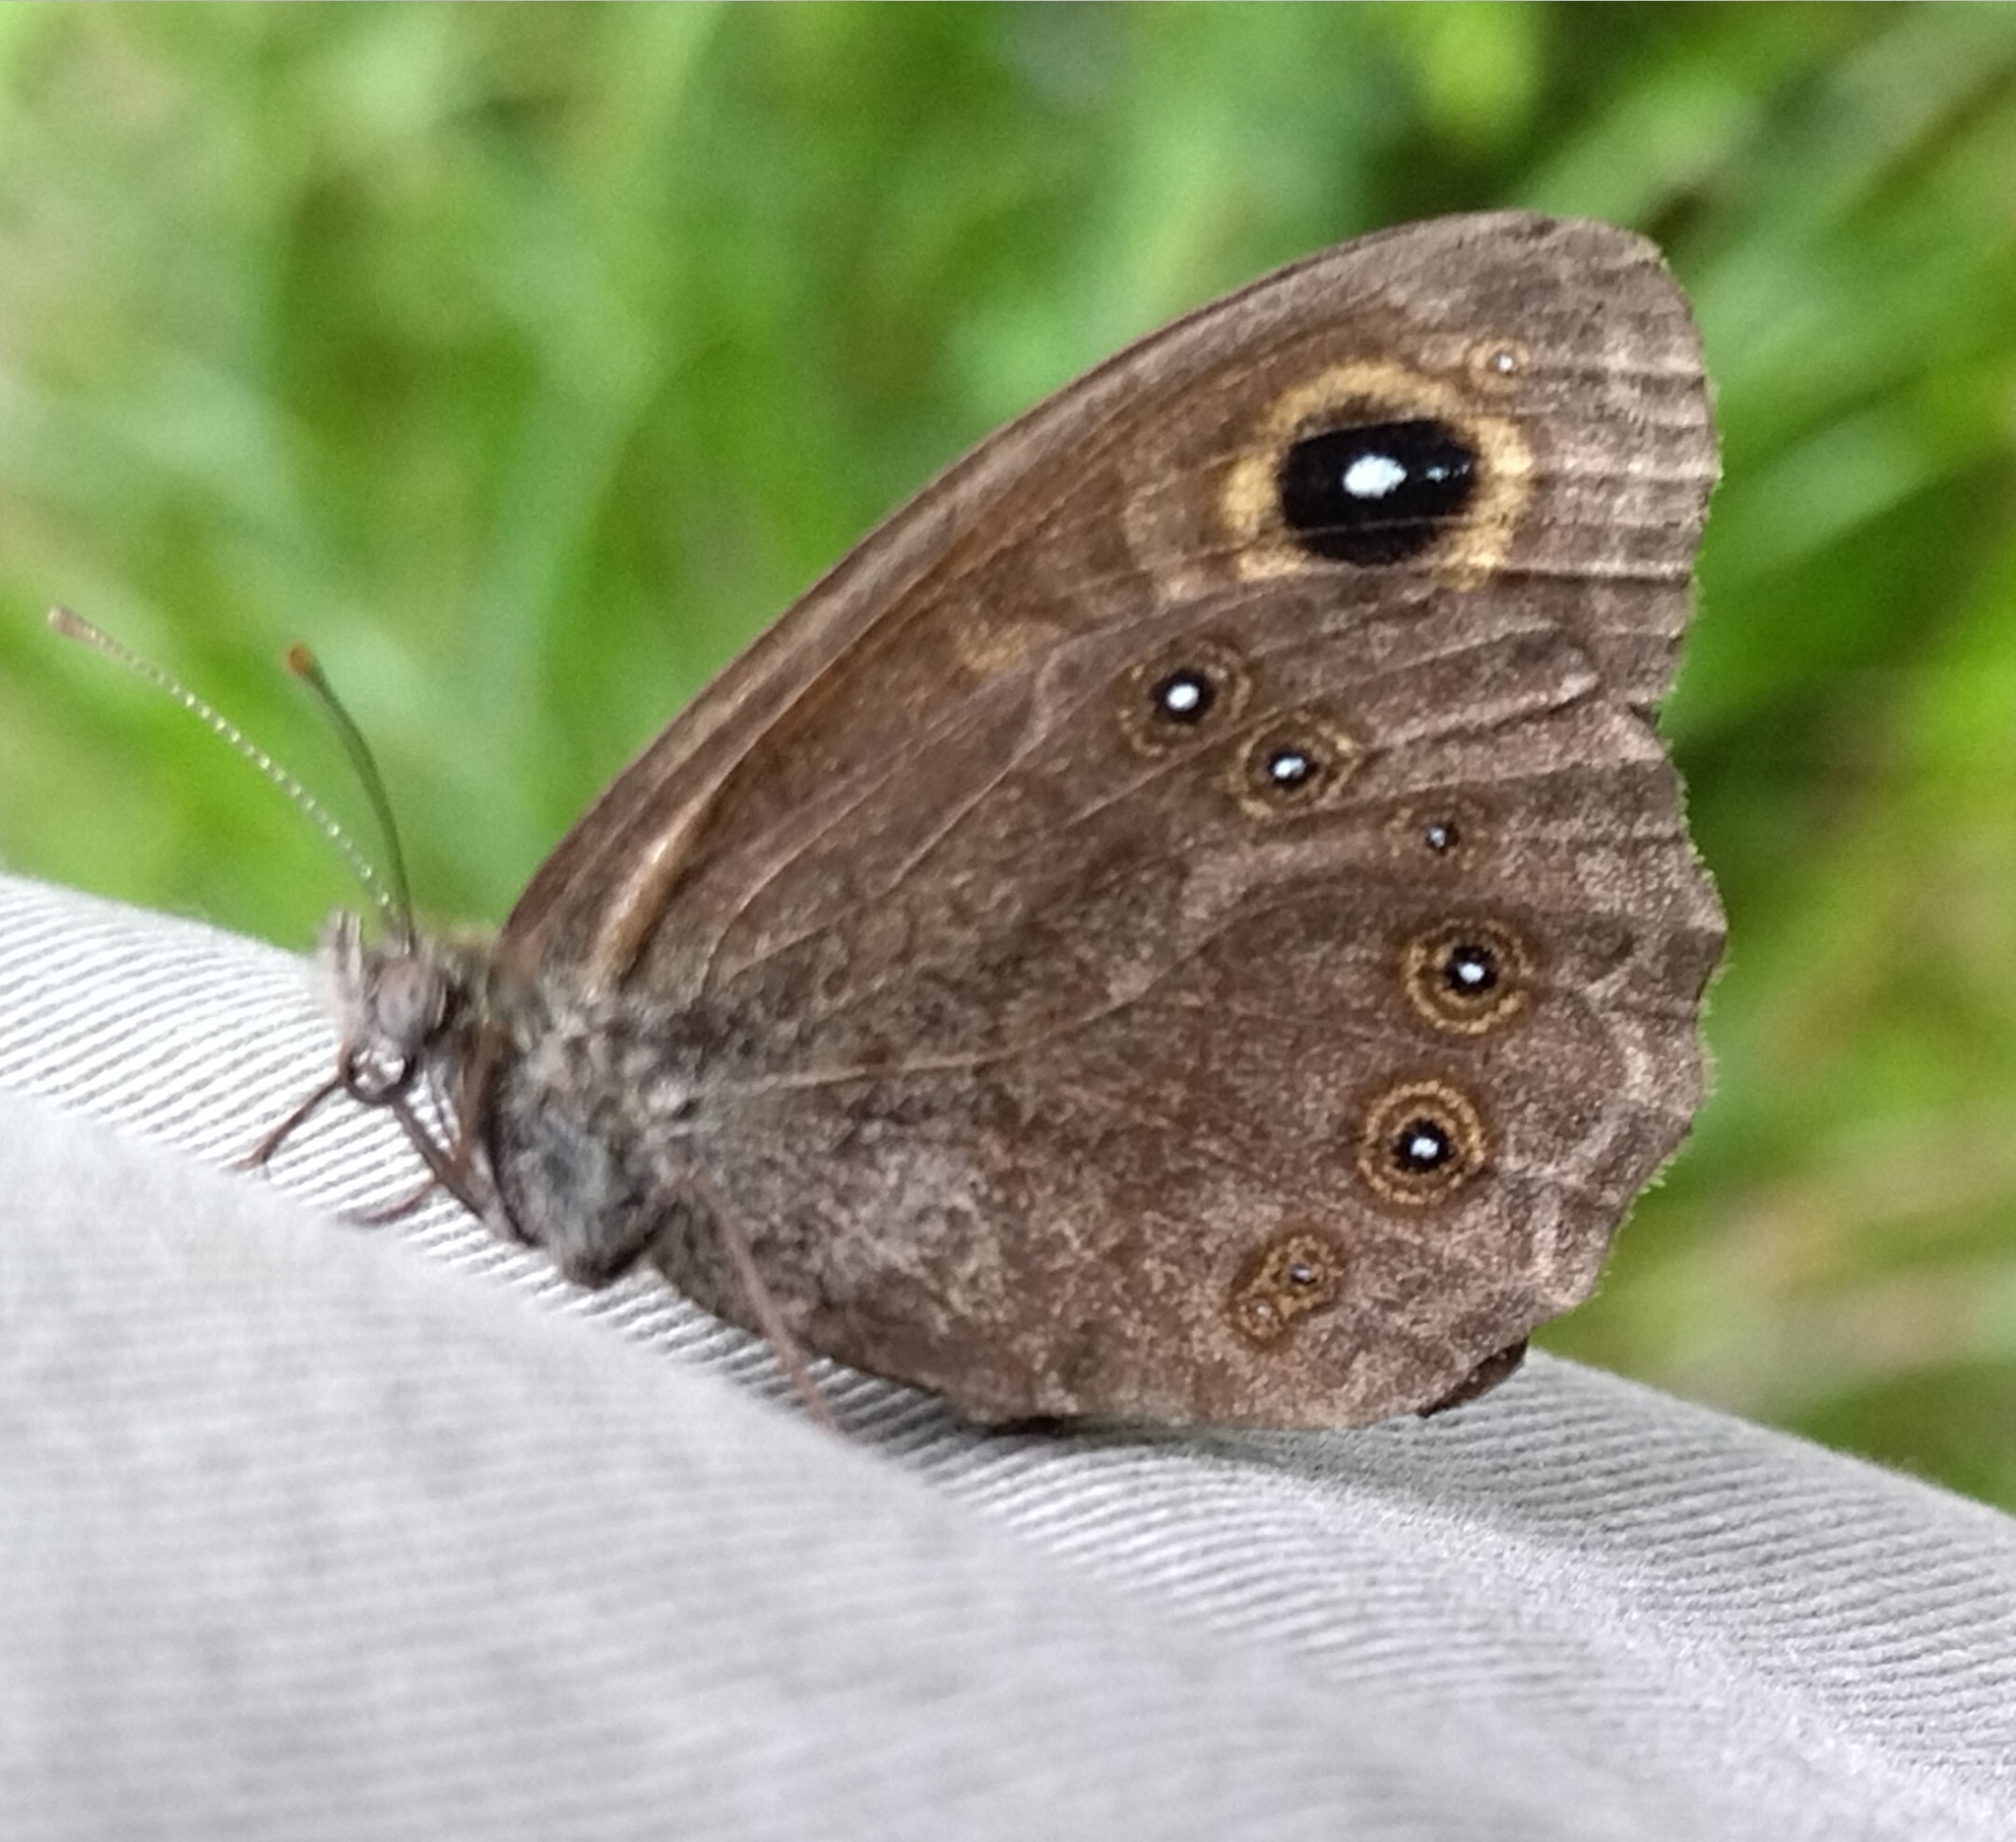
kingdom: Animalia
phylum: Arthropoda
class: Insecta
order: Lepidoptera
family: Nymphalidae
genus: Pararge
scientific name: Pararge Lasiommata maera
